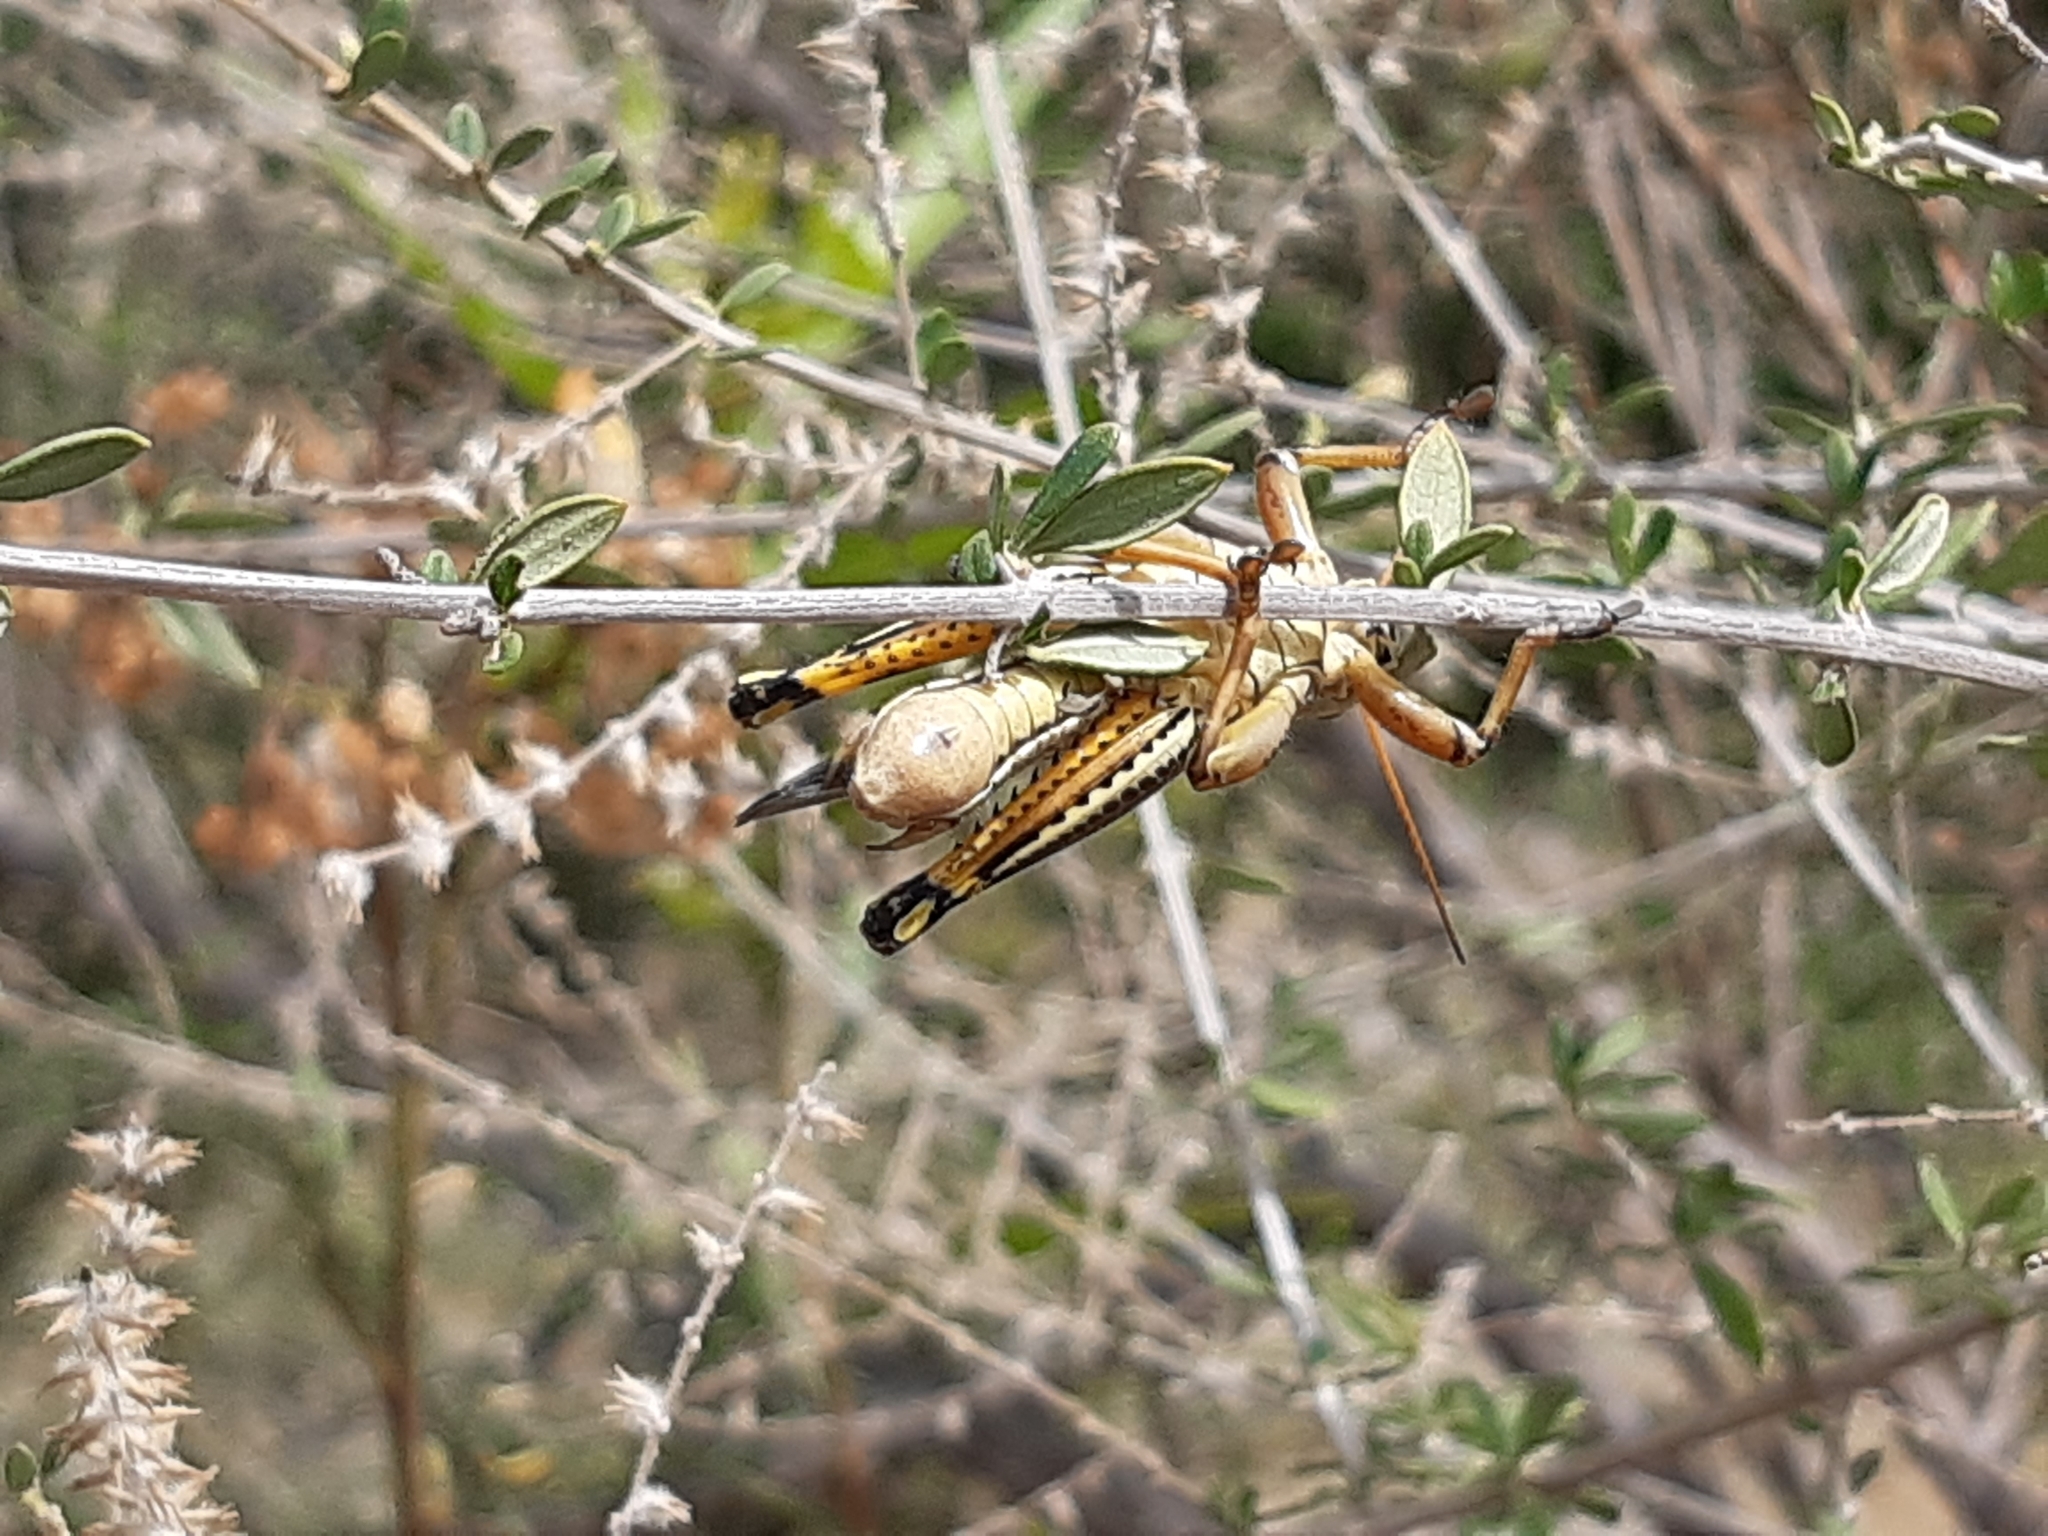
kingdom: Animalia
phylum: Arthropoda
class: Insecta
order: Orthoptera
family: Acrididae
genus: Melanoplus
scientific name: Melanoplus differentialis
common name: Differential grasshopper
